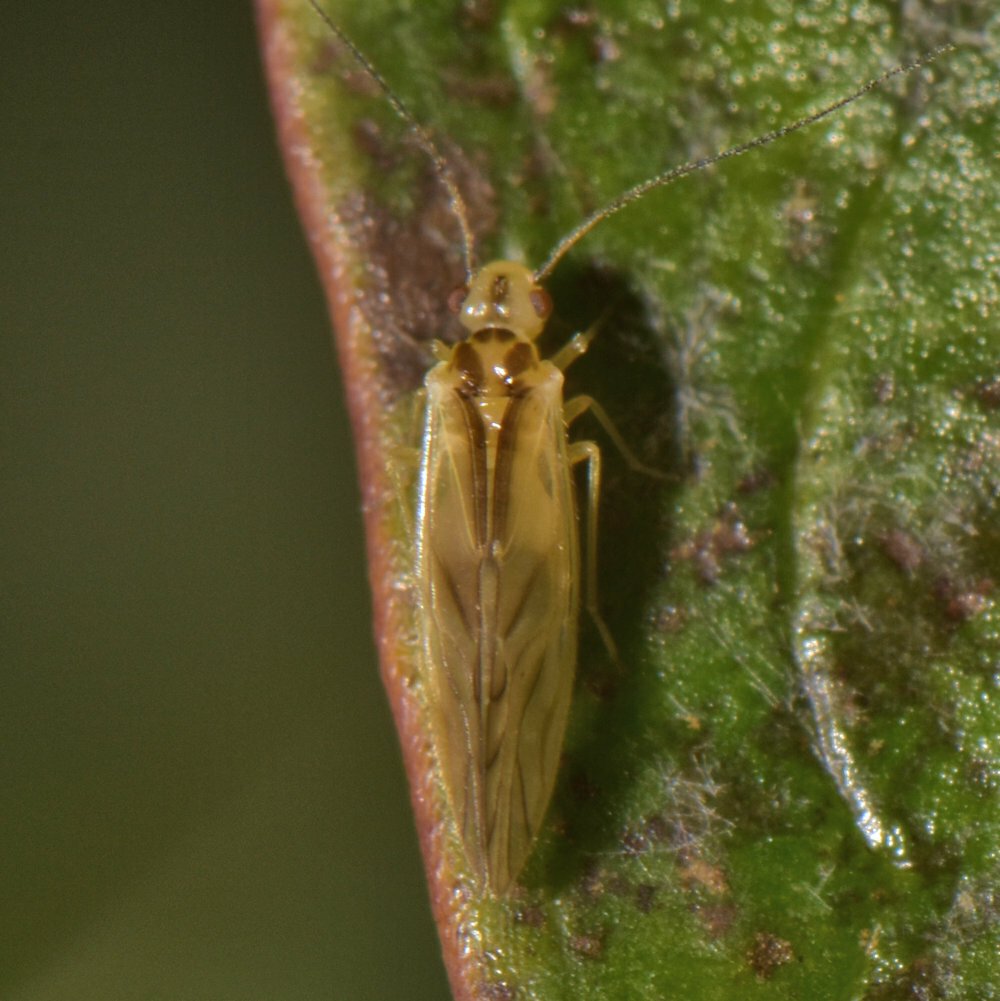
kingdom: Animalia
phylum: Arthropoda
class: Insecta
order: Psocodea
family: Caeciliusidae
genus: Valenzuela
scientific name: Valenzuela flavidus
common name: Yellow barklouse
